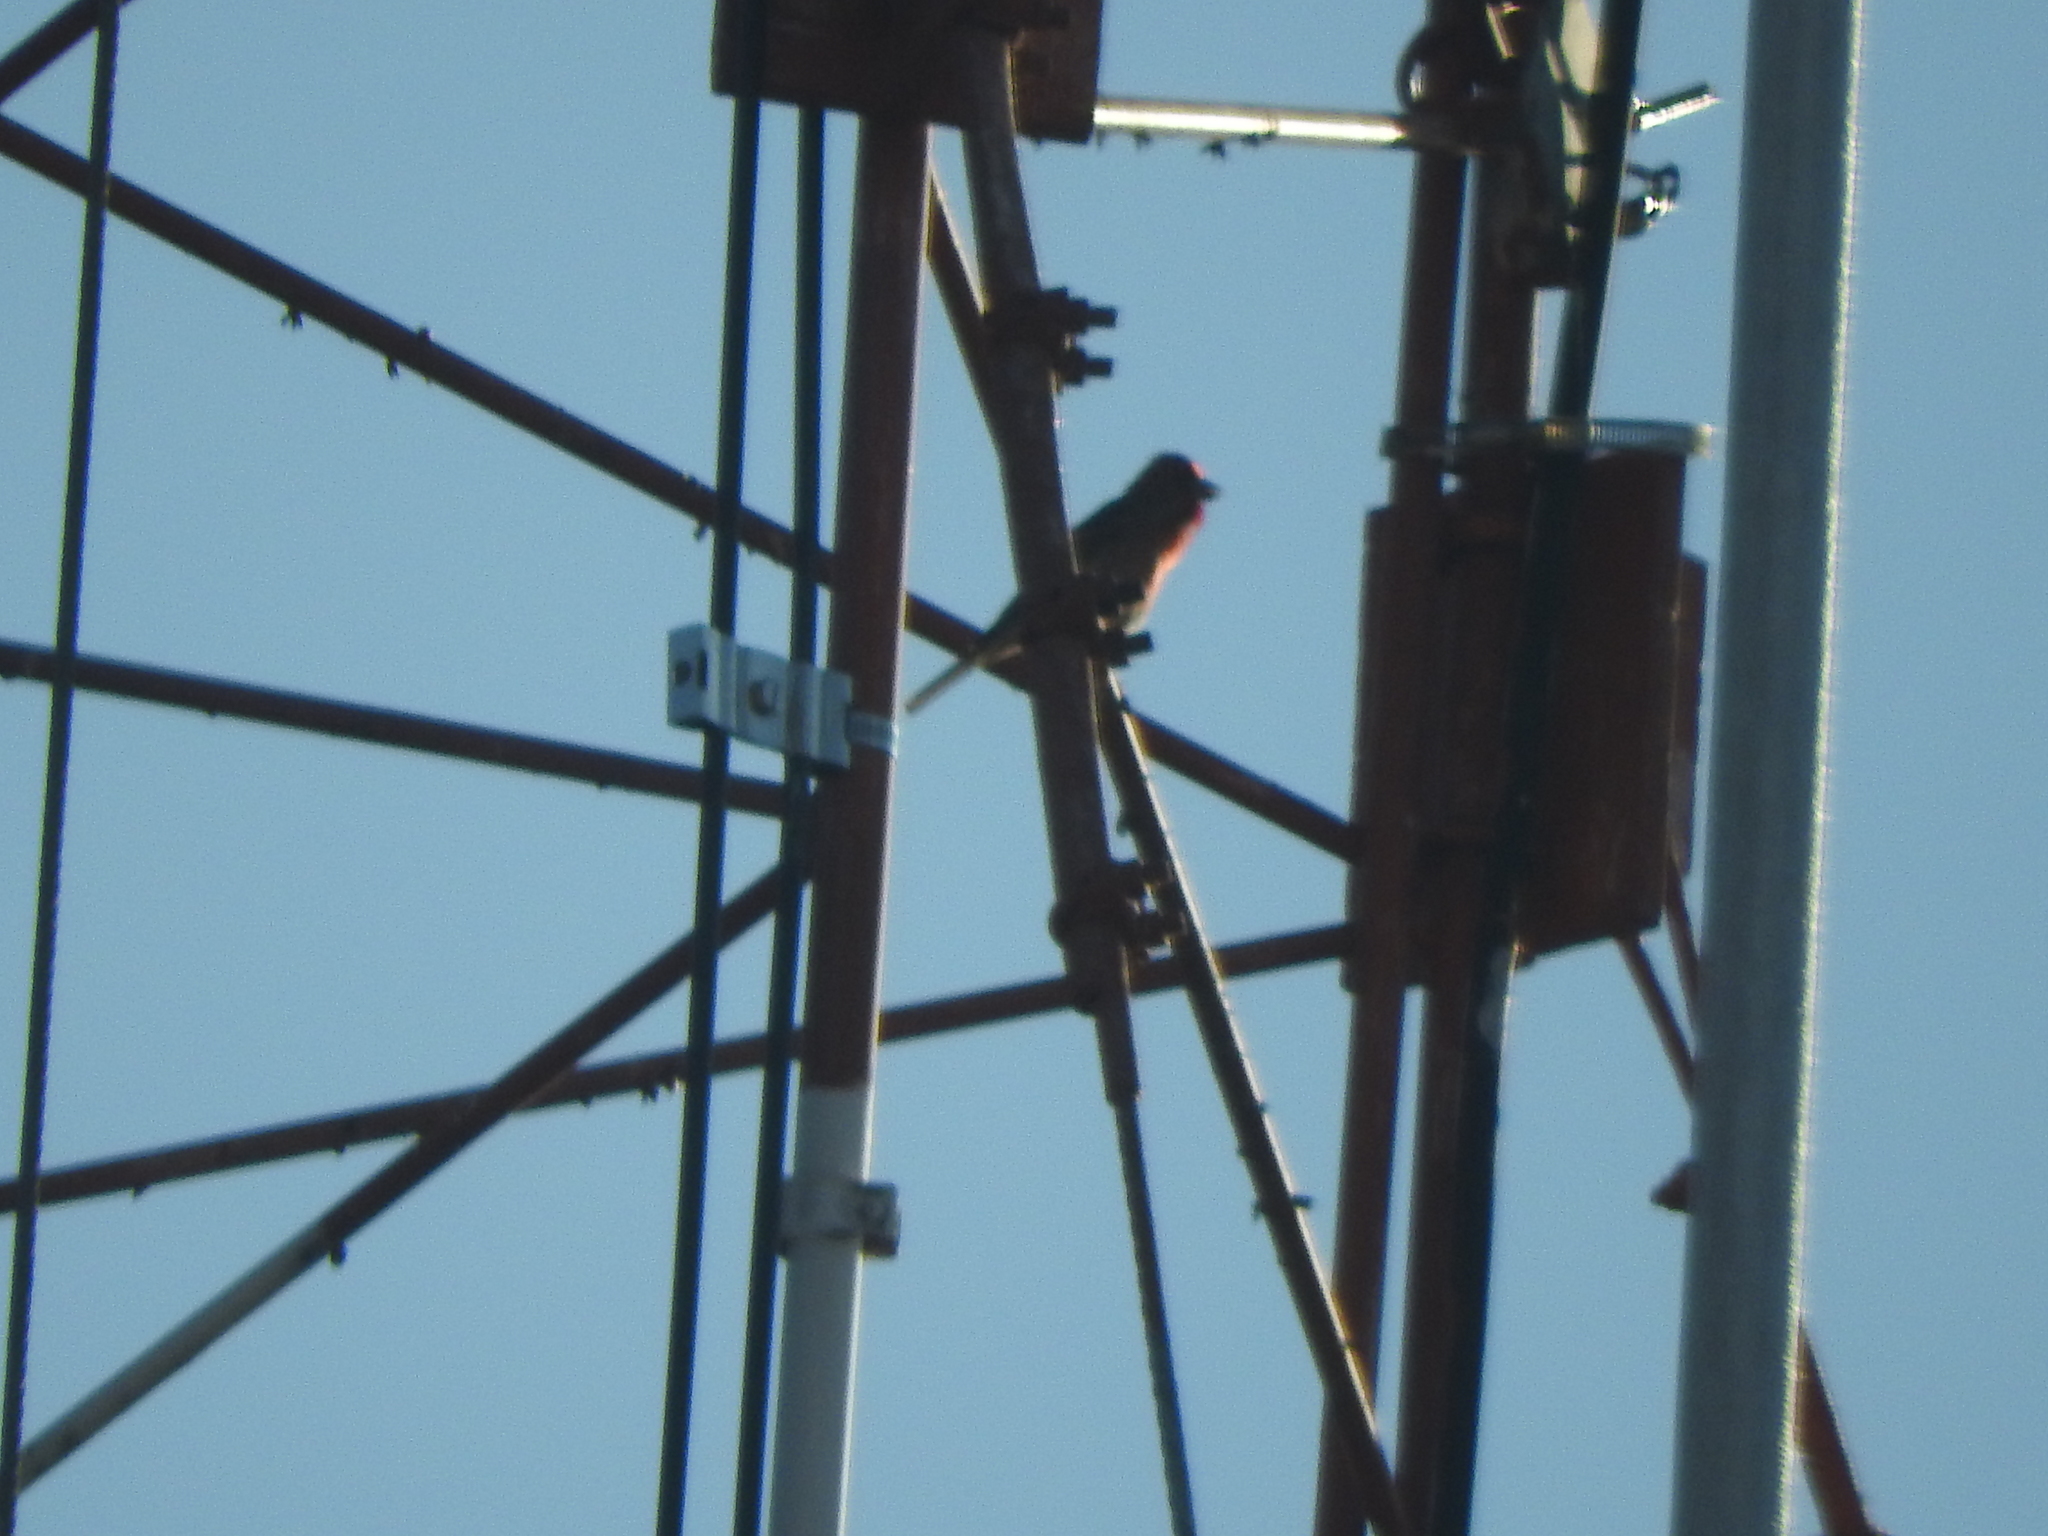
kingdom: Animalia
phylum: Chordata
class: Aves
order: Passeriformes
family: Fringillidae
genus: Haemorhous
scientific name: Haemorhous mexicanus
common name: House finch
